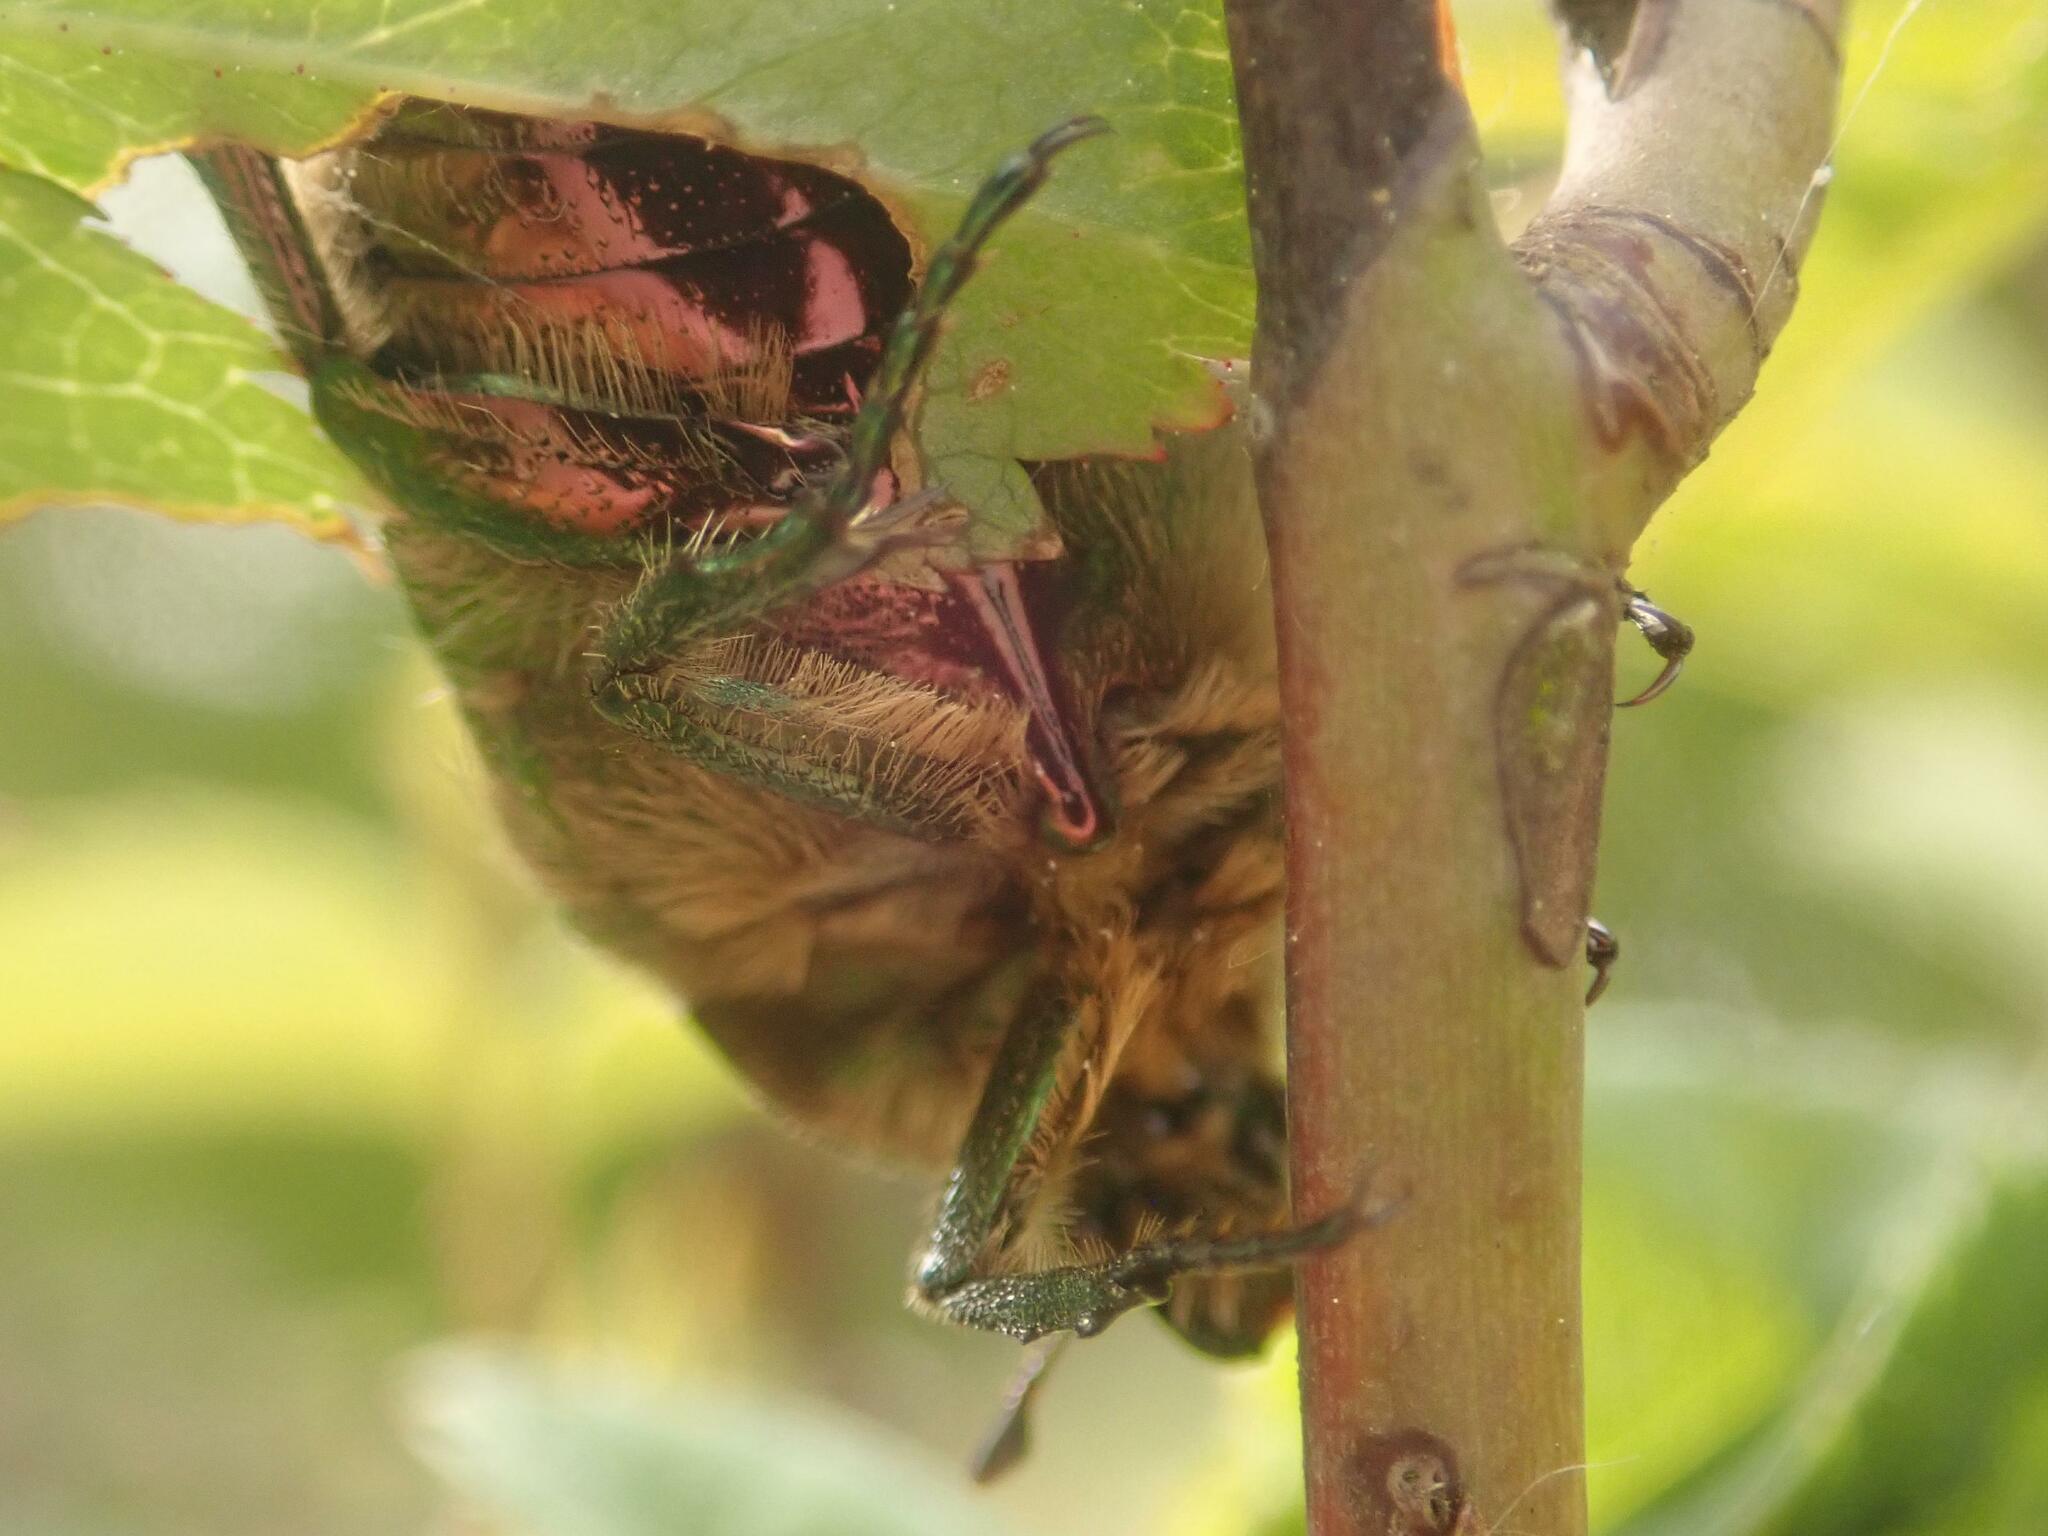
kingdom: Animalia
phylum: Arthropoda
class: Insecta
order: Coleoptera
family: Scarabaeidae
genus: Cetonia
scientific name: Cetonia aurata
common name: Rose chafer
